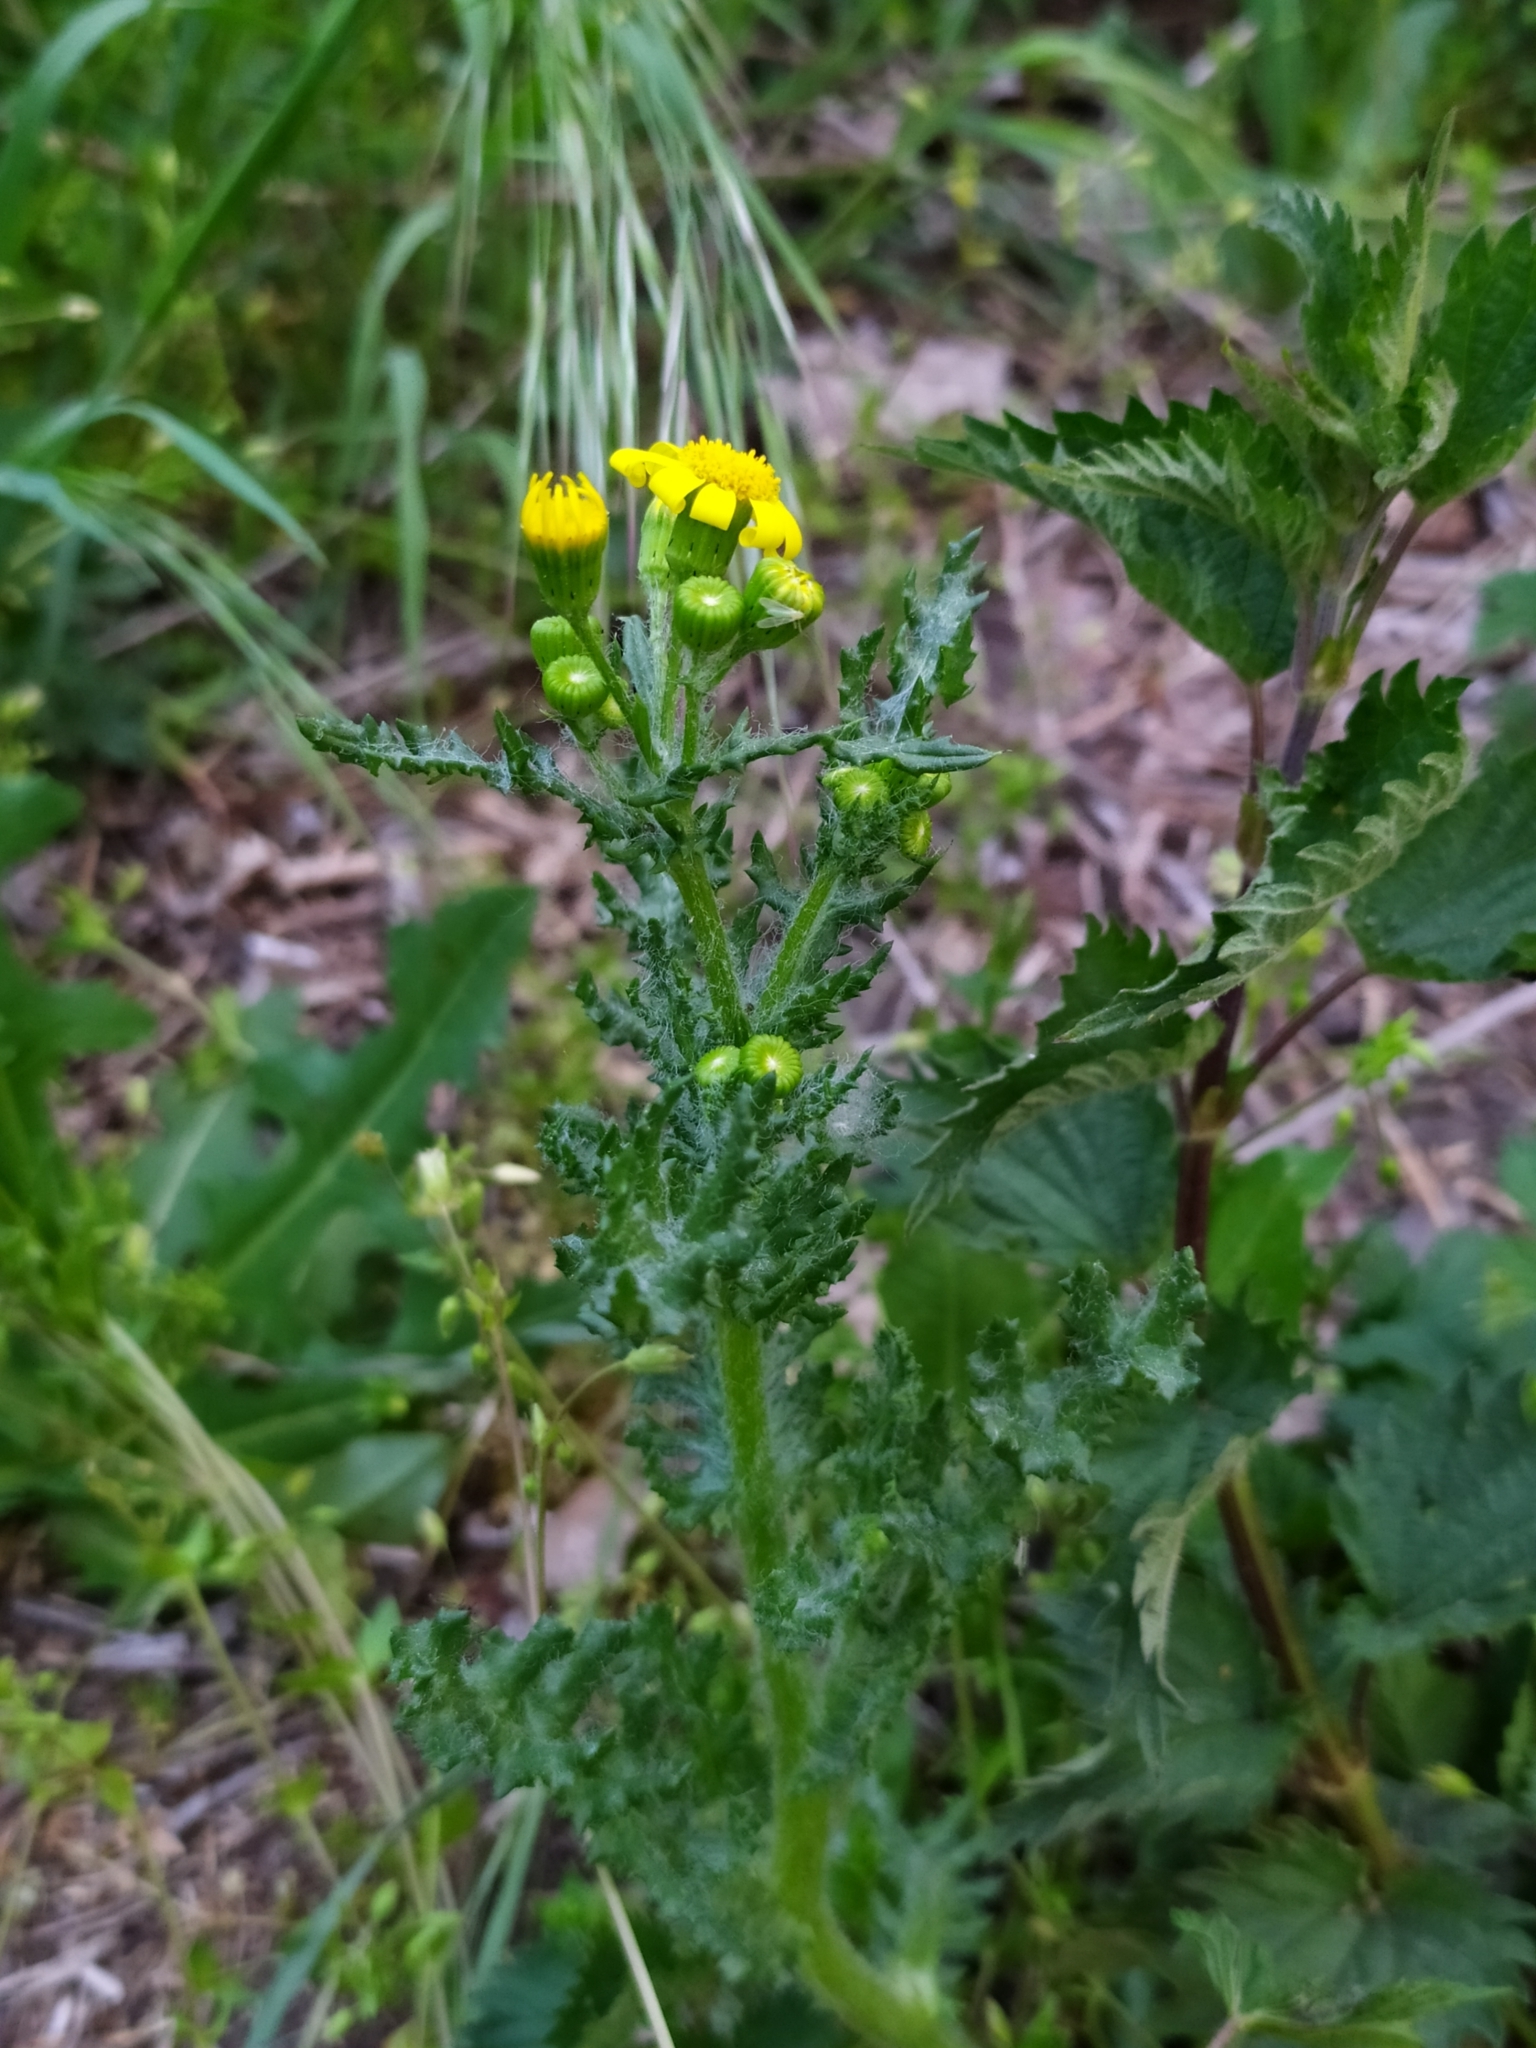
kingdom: Plantae
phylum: Tracheophyta
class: Magnoliopsida
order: Asterales
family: Asteraceae
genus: Senecio
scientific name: Senecio vernalis
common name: Eastern groundsel
